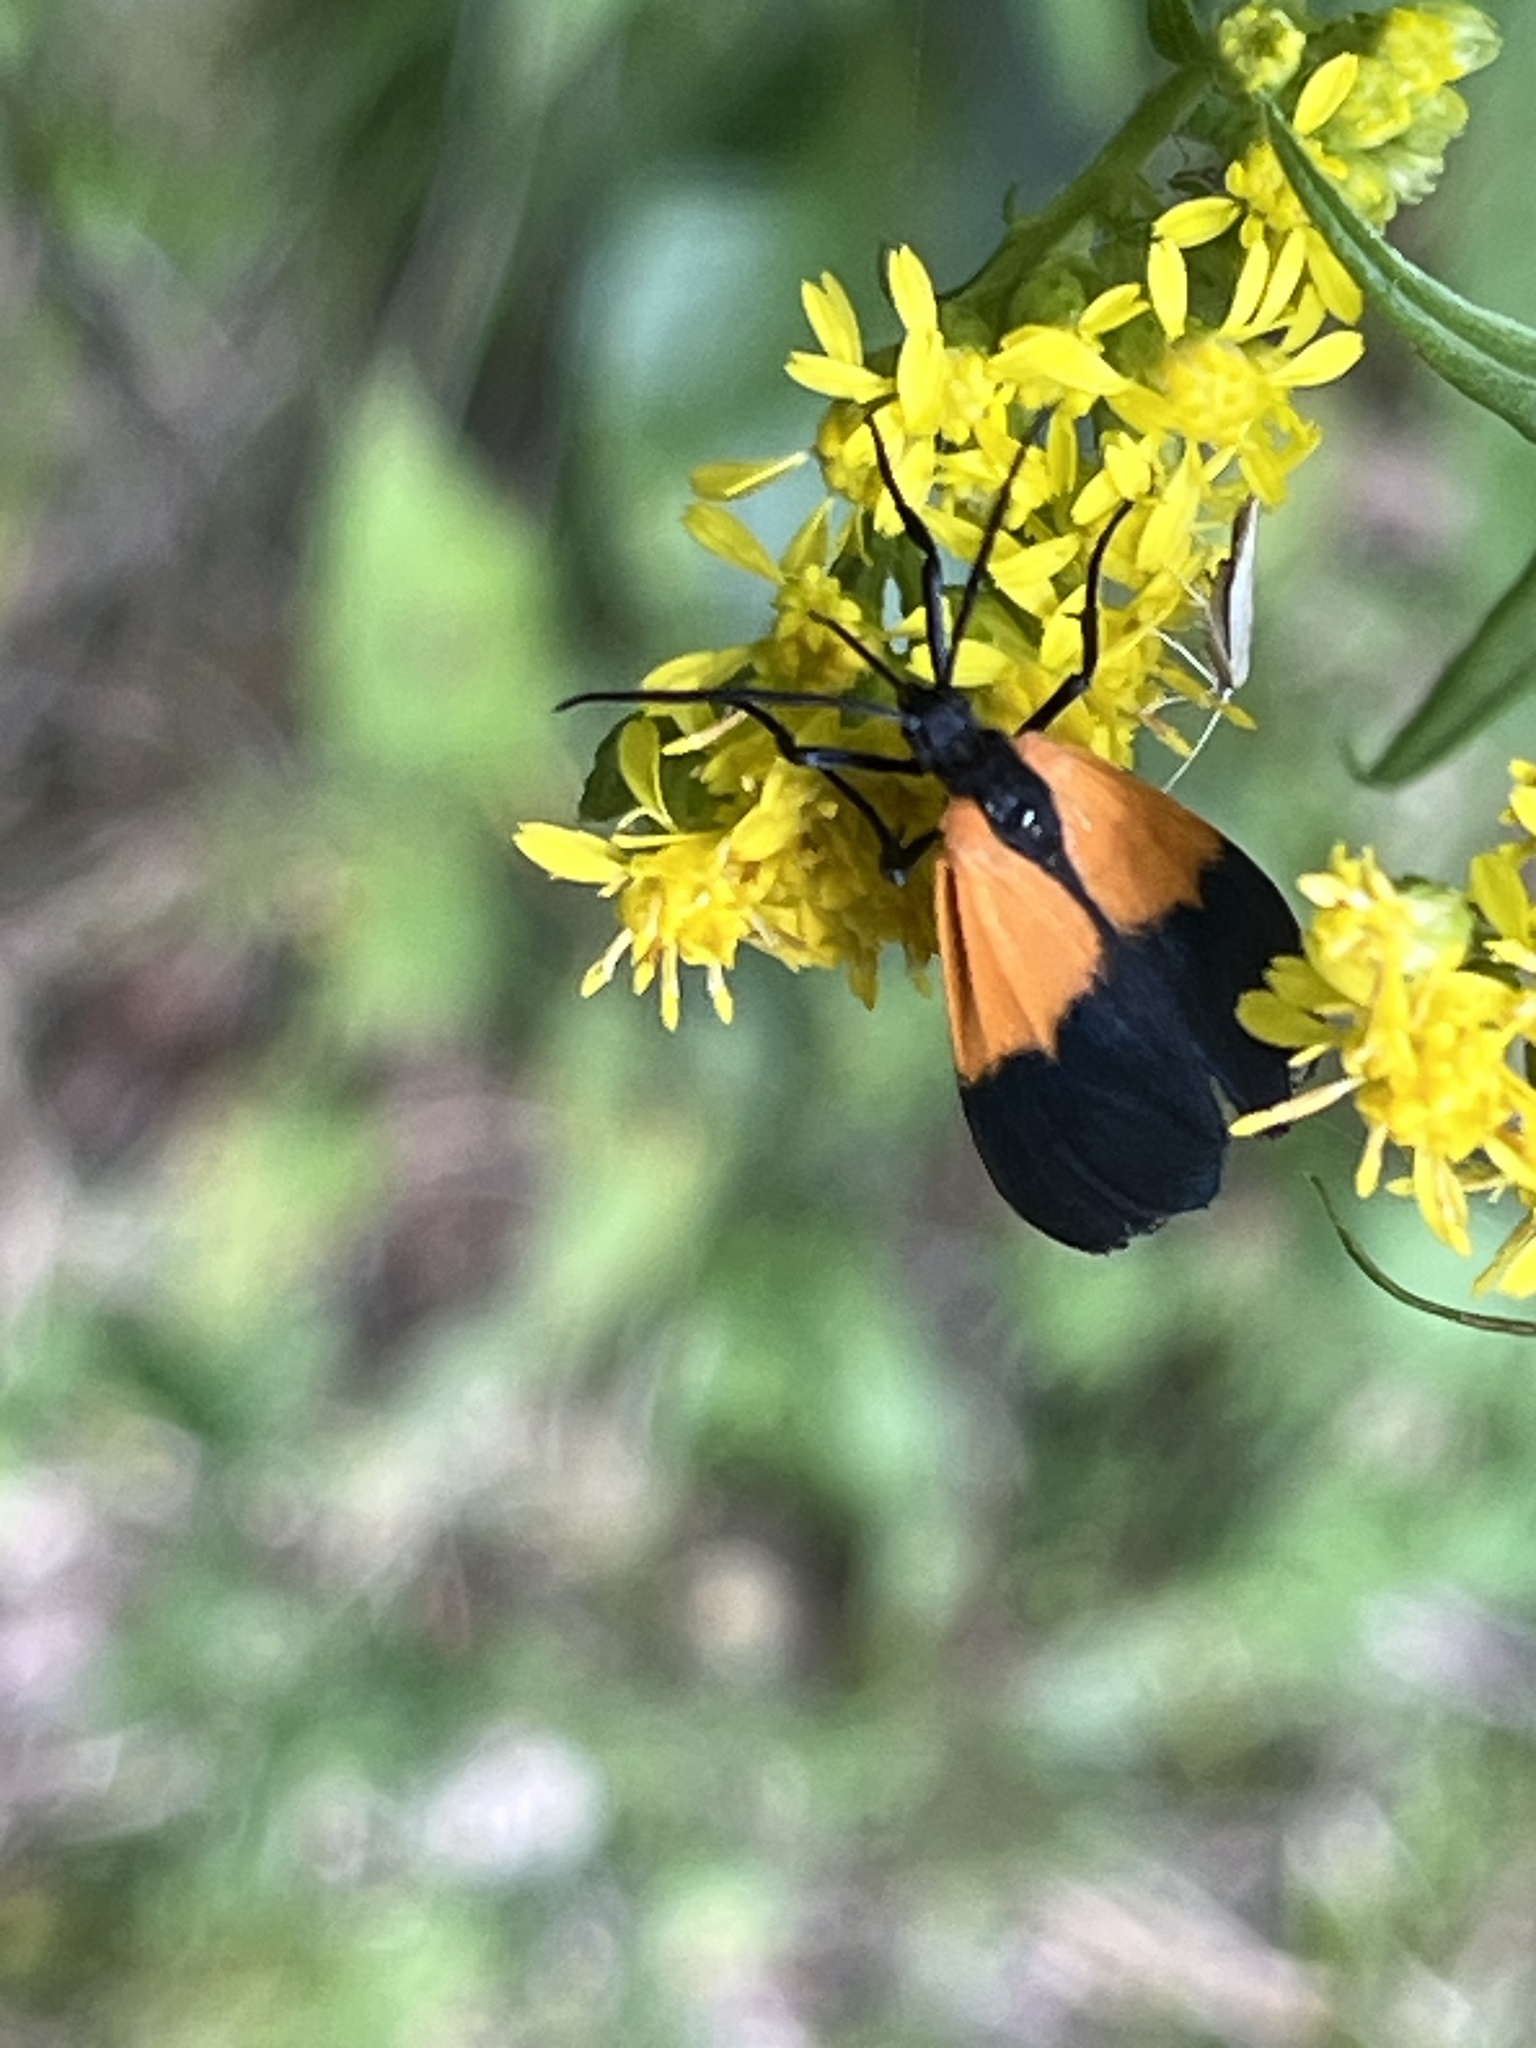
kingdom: Animalia
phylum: Arthropoda
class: Insecta
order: Lepidoptera
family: Erebidae
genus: Lycomorpha
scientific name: Lycomorpha pholus
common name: Black-and-yellow lichen moth
